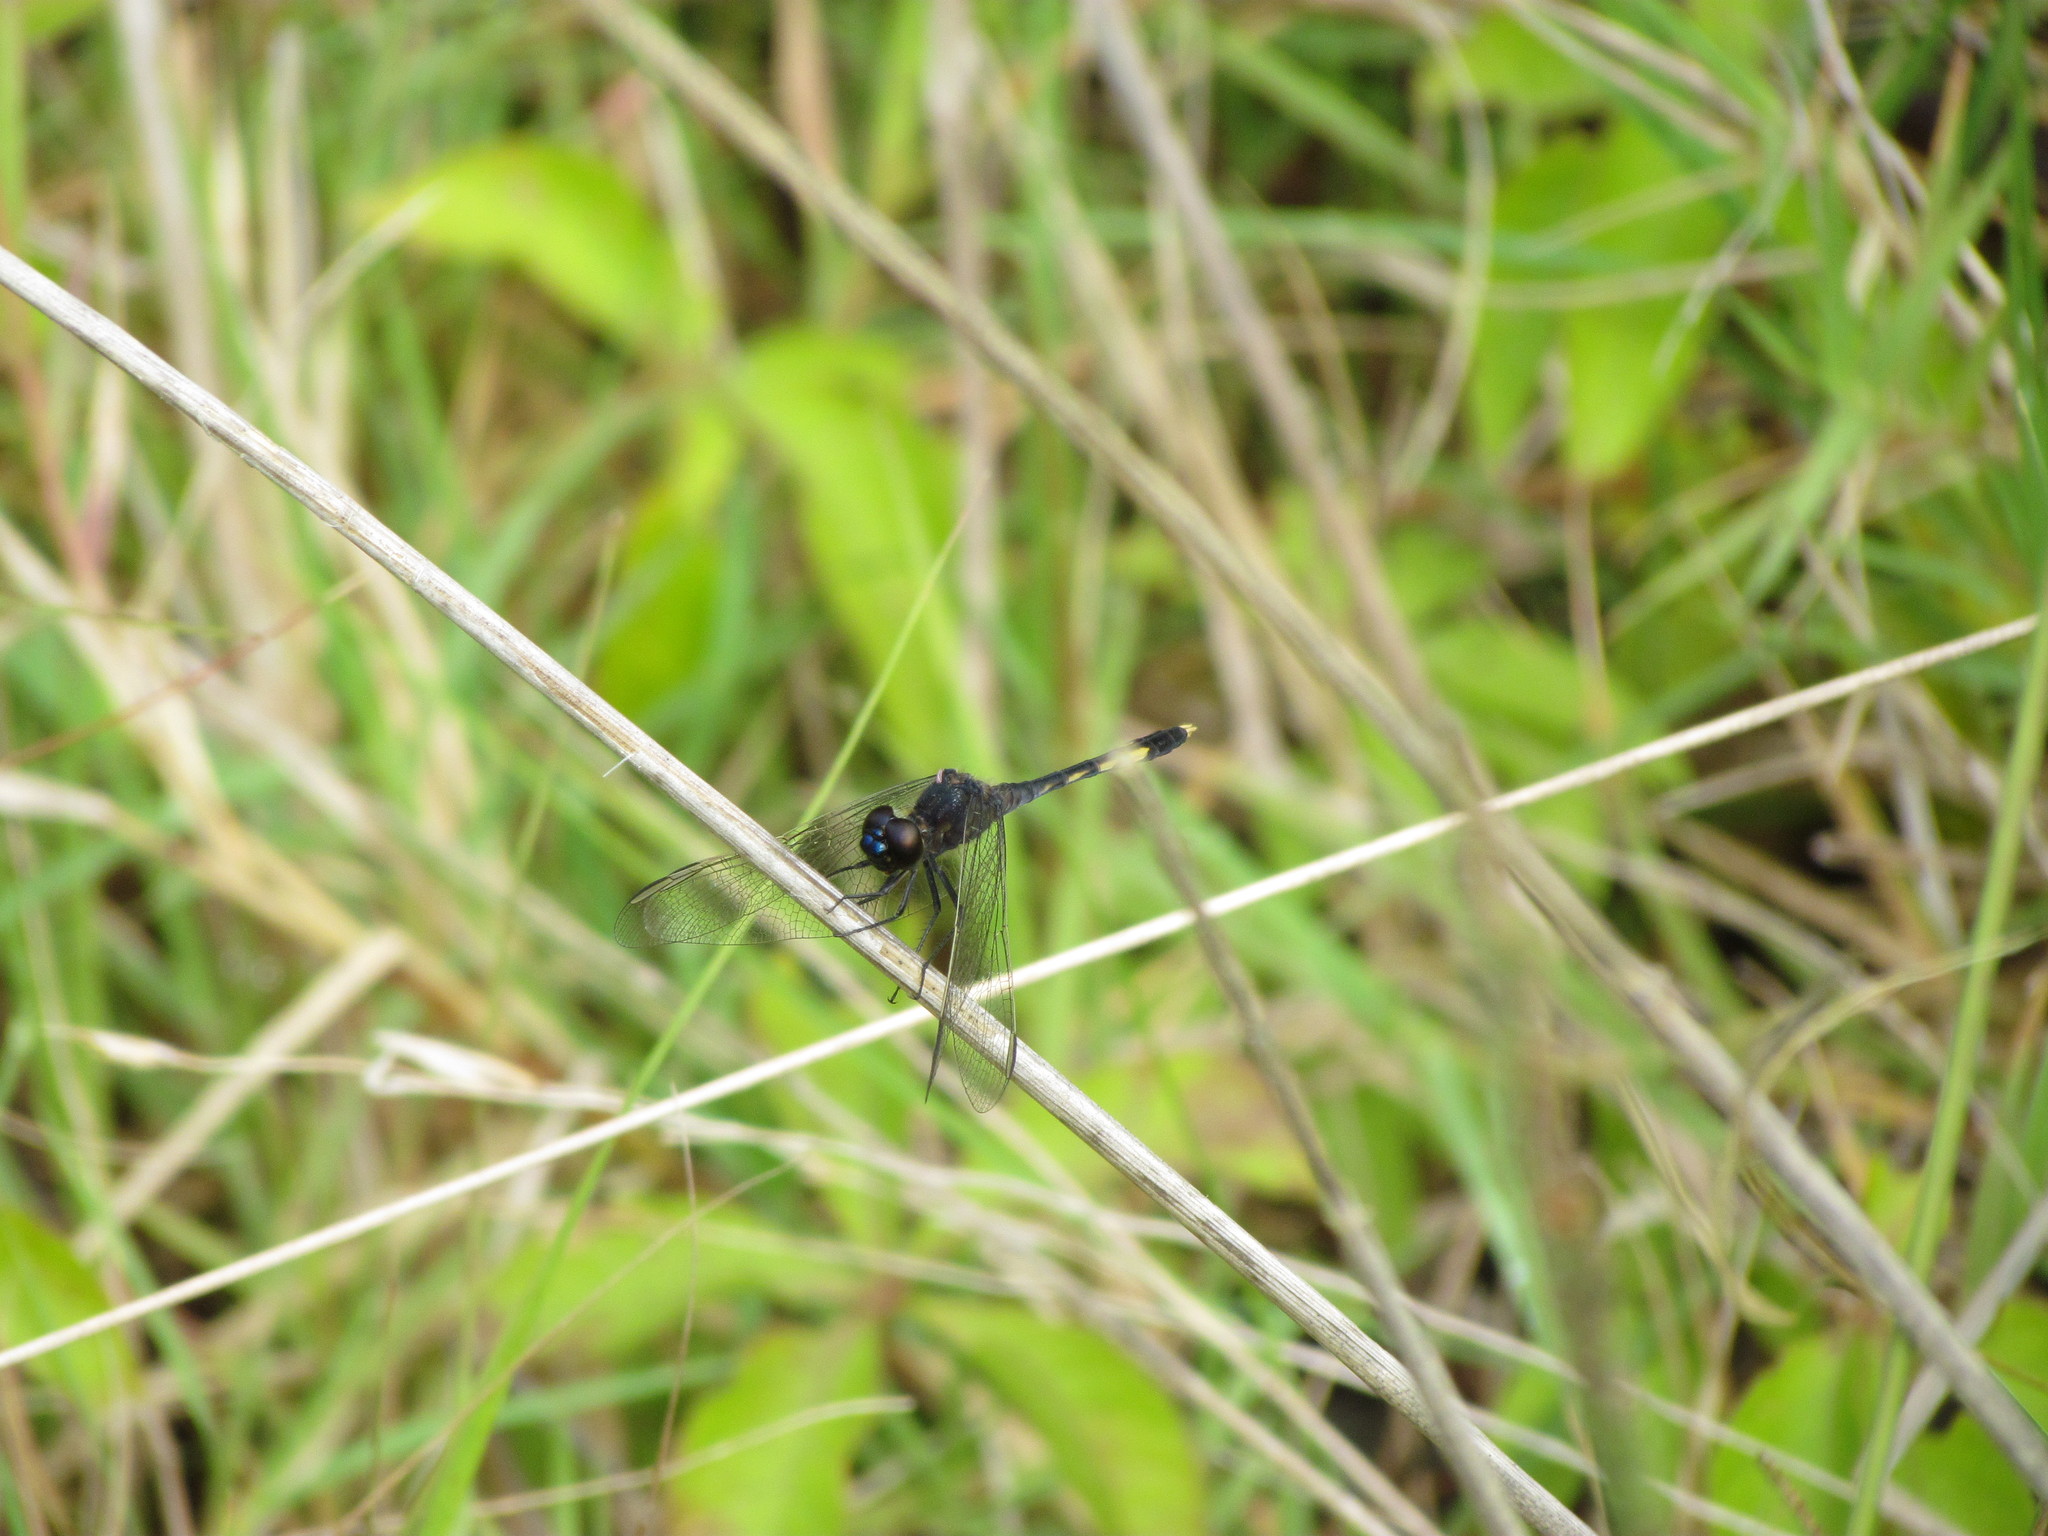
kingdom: Animalia
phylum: Arthropoda
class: Insecta
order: Odonata
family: Libellulidae
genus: Erythrodiplax
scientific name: Erythrodiplax nigricans
